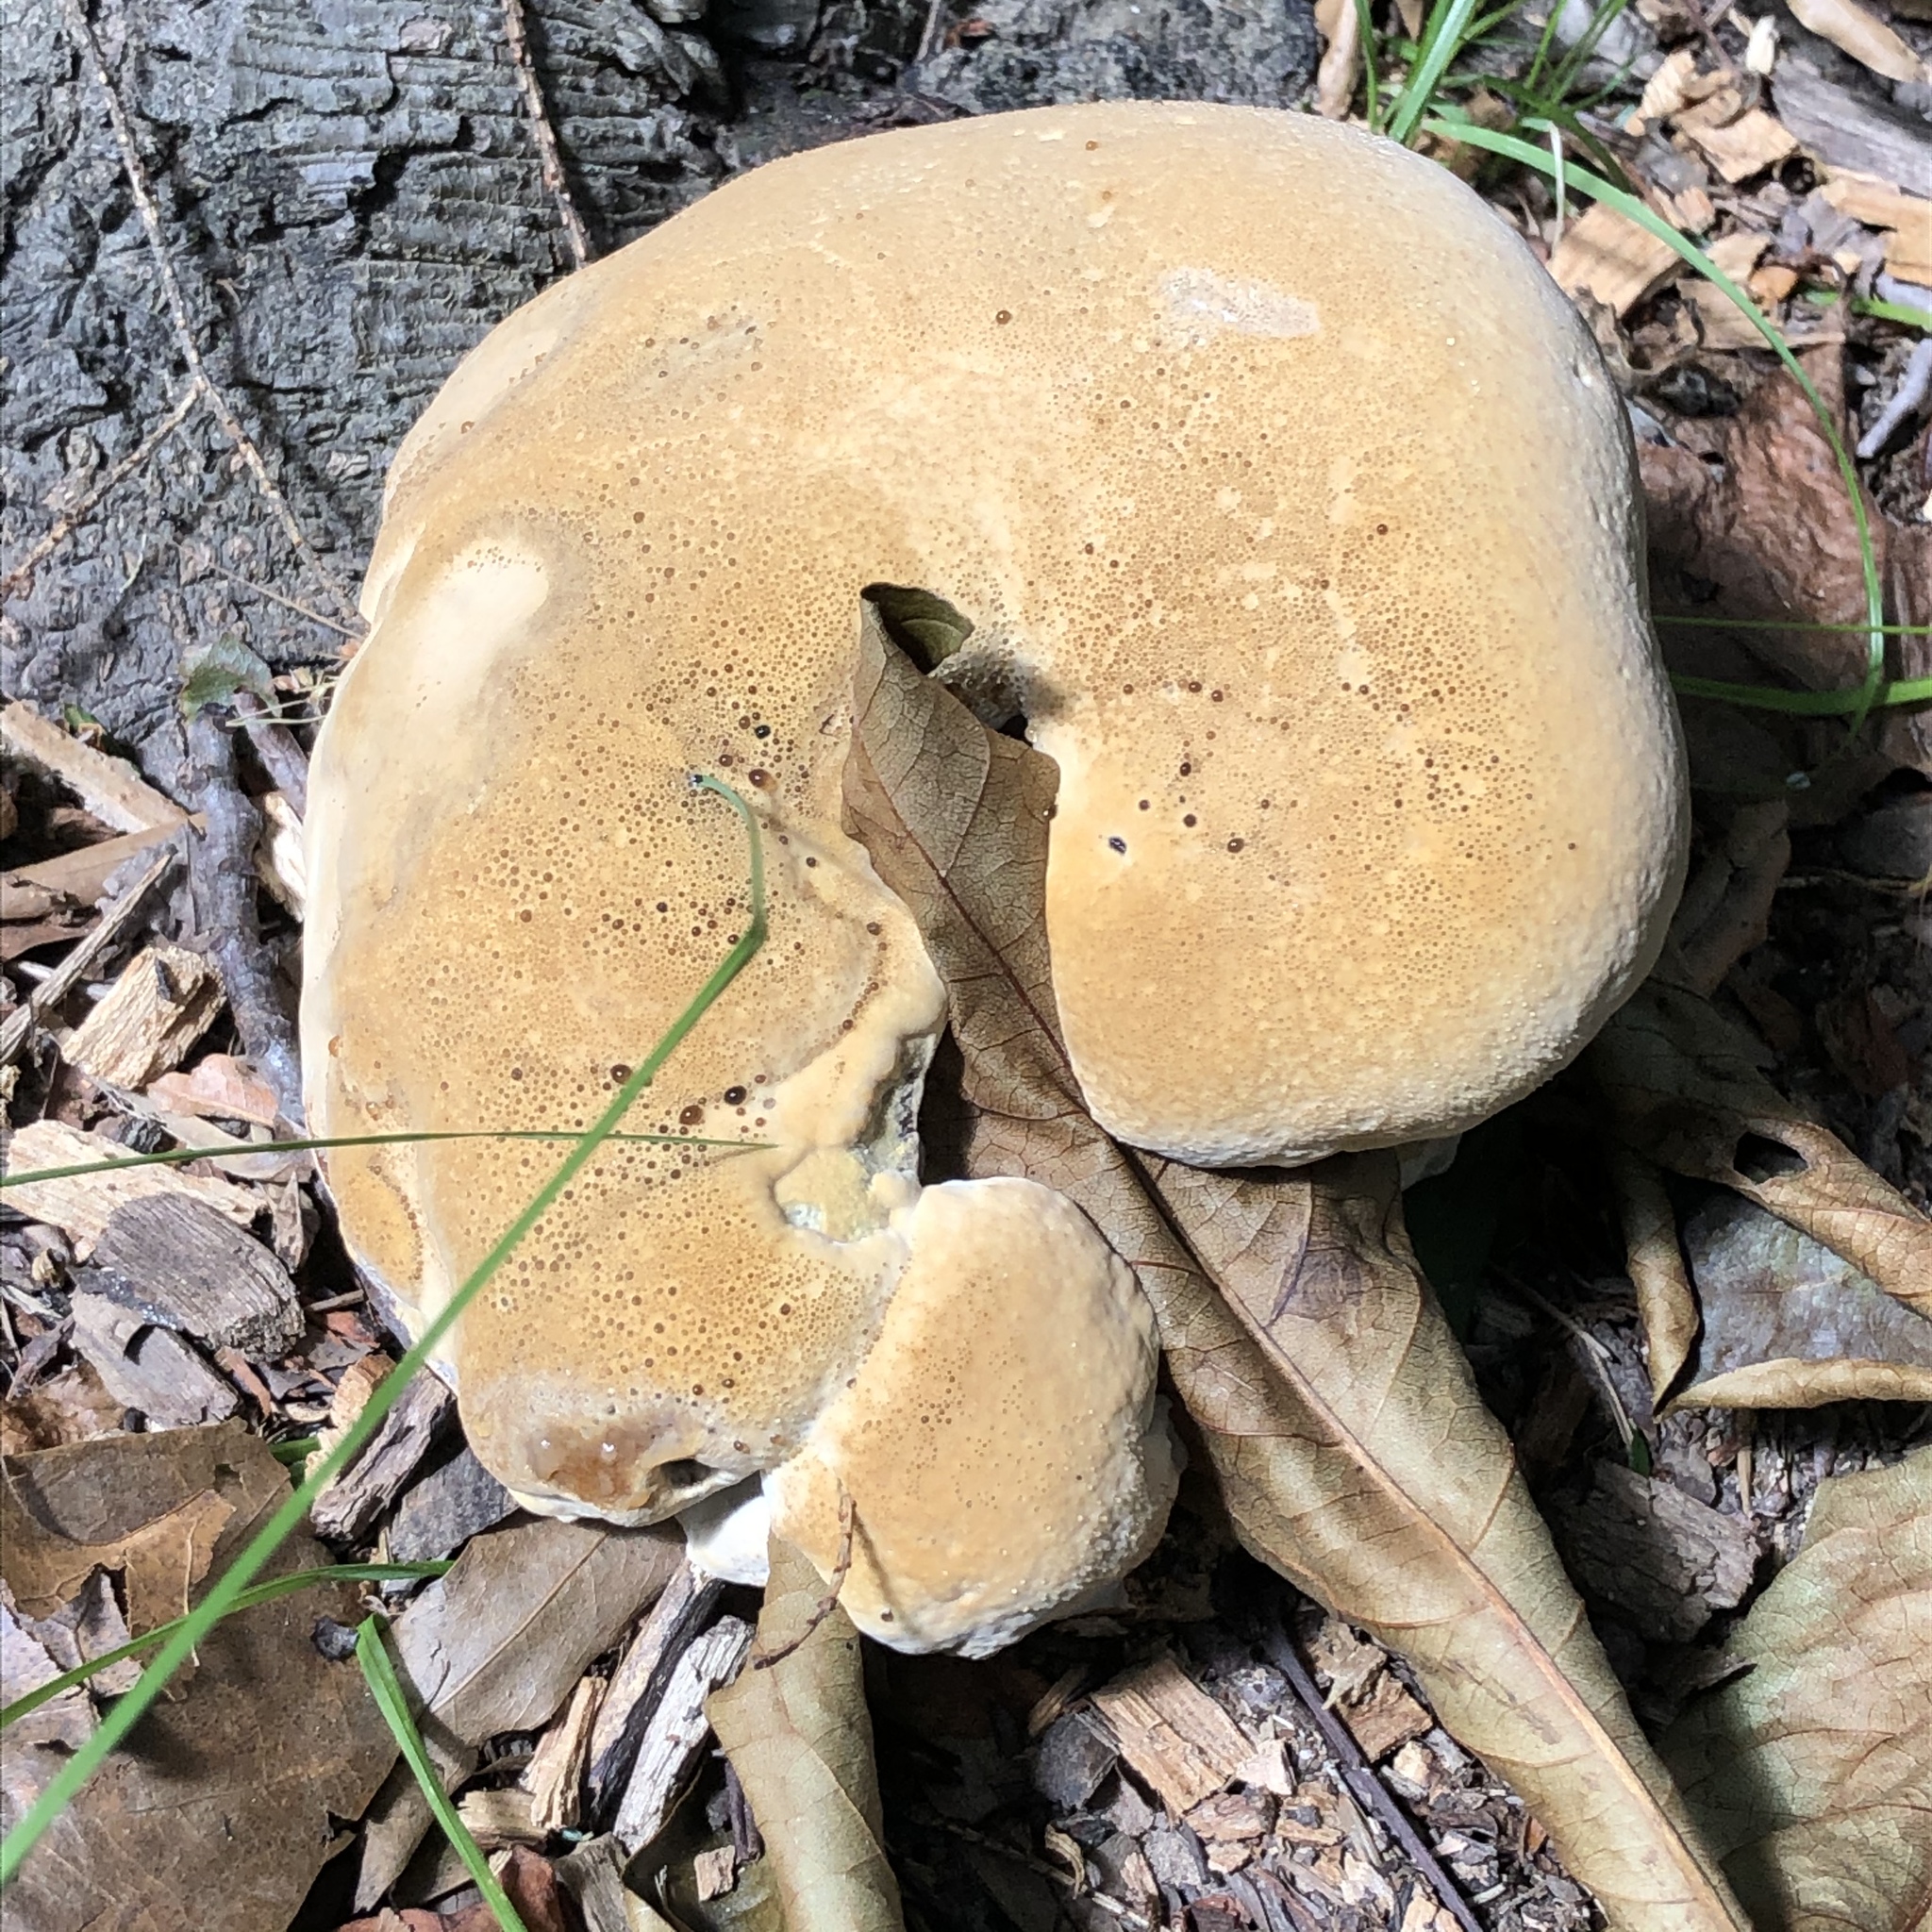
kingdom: Fungi
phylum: Basidiomycota
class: Agaricomycetes
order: Hymenochaetales
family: Hymenochaetaceae
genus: Pseudoinonotus
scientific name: Pseudoinonotus dryadeus
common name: Oak bracket
